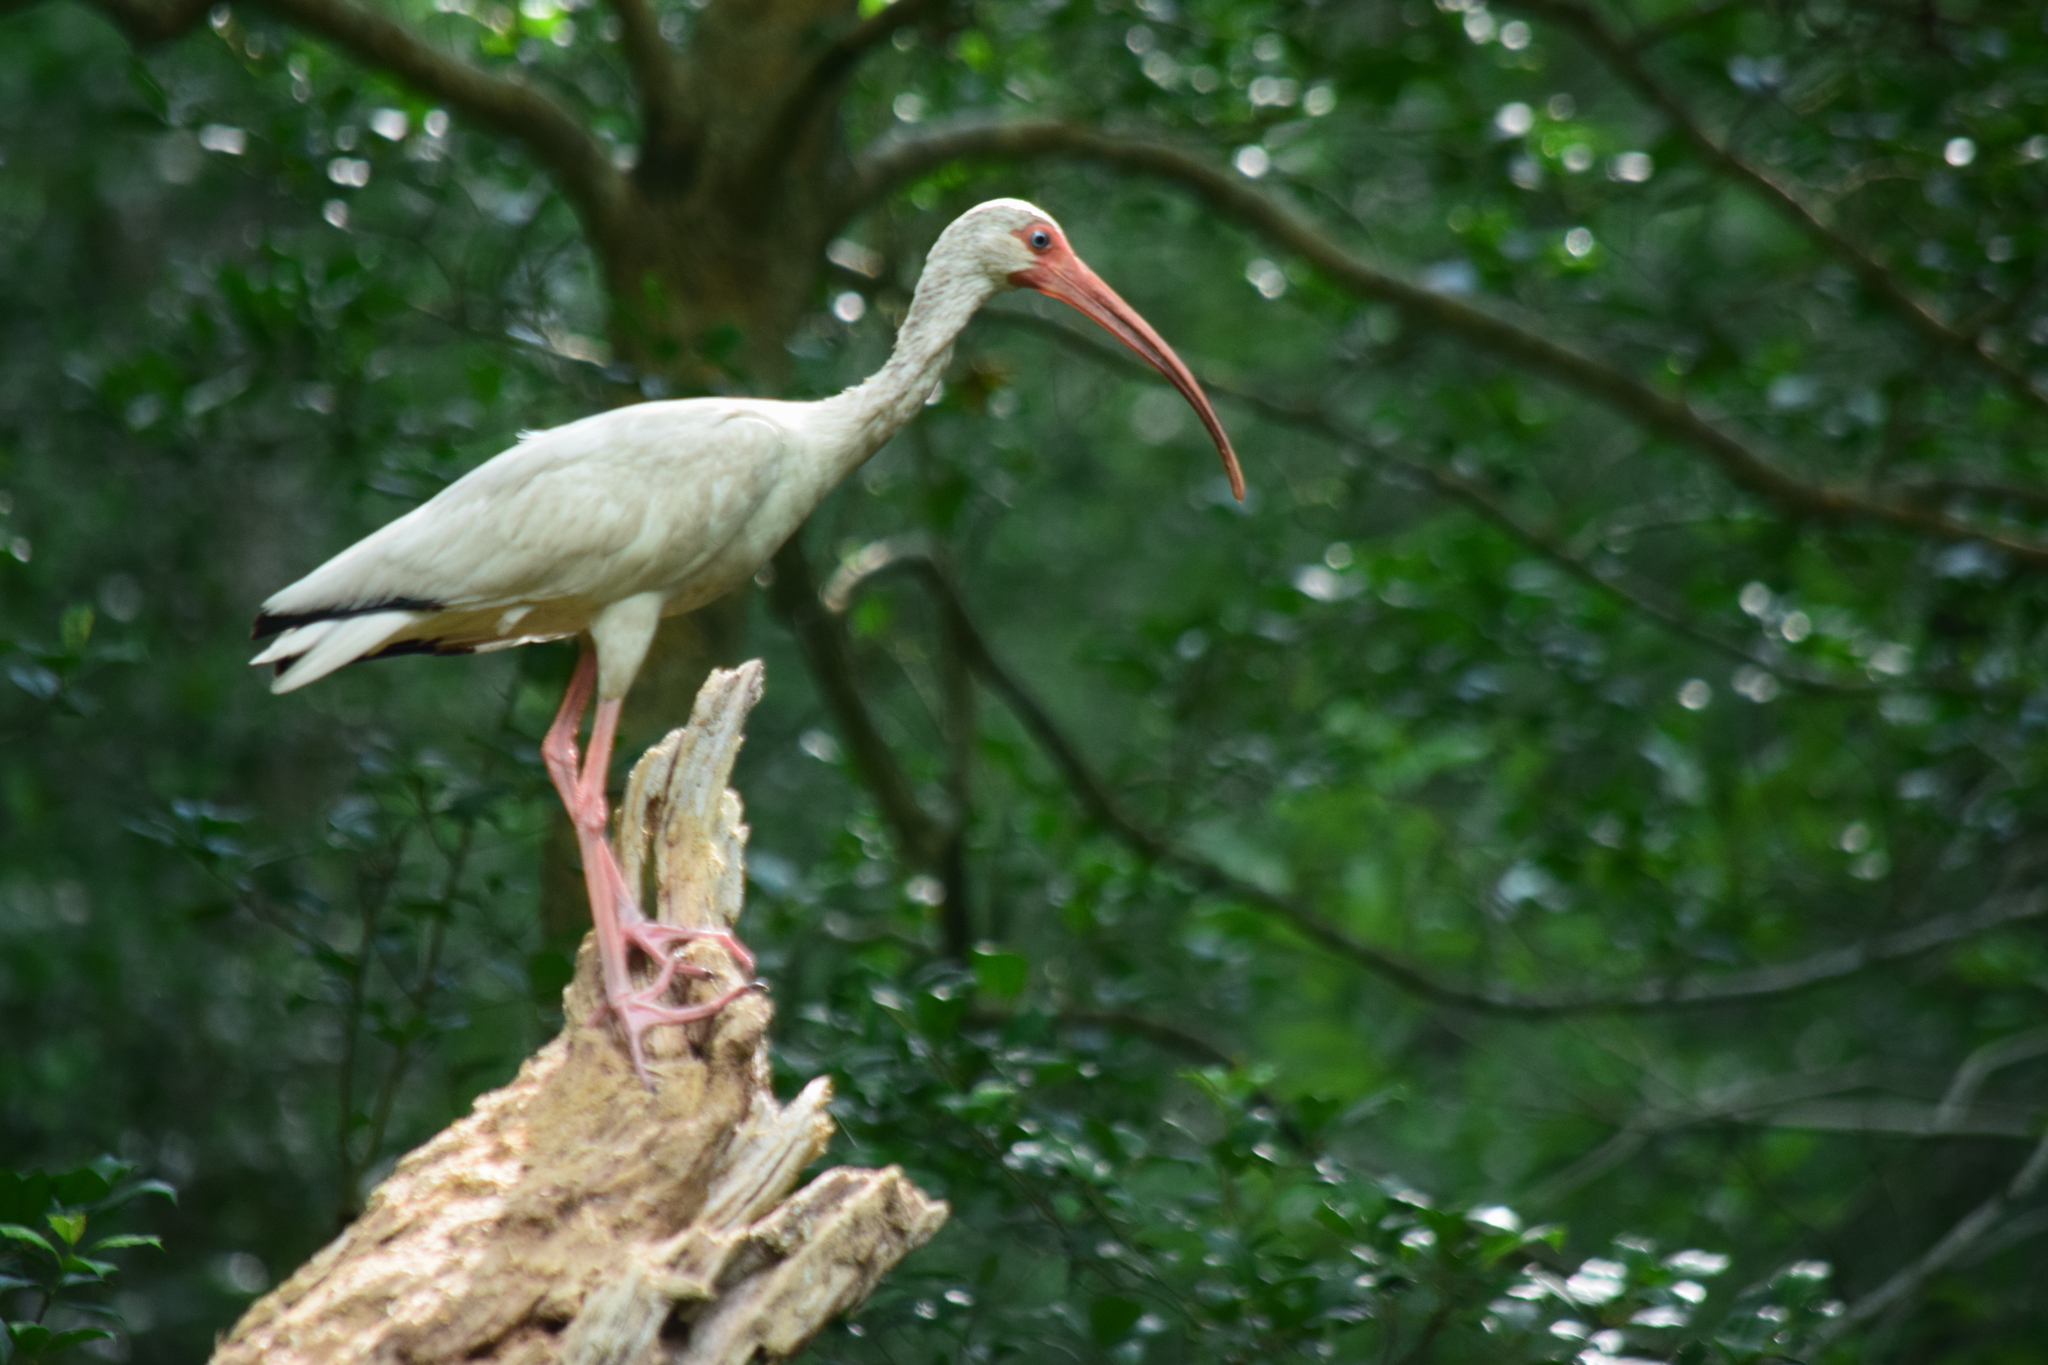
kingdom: Animalia
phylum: Chordata
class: Aves
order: Pelecaniformes
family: Threskiornithidae
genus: Eudocimus
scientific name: Eudocimus albus
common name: White ibis
